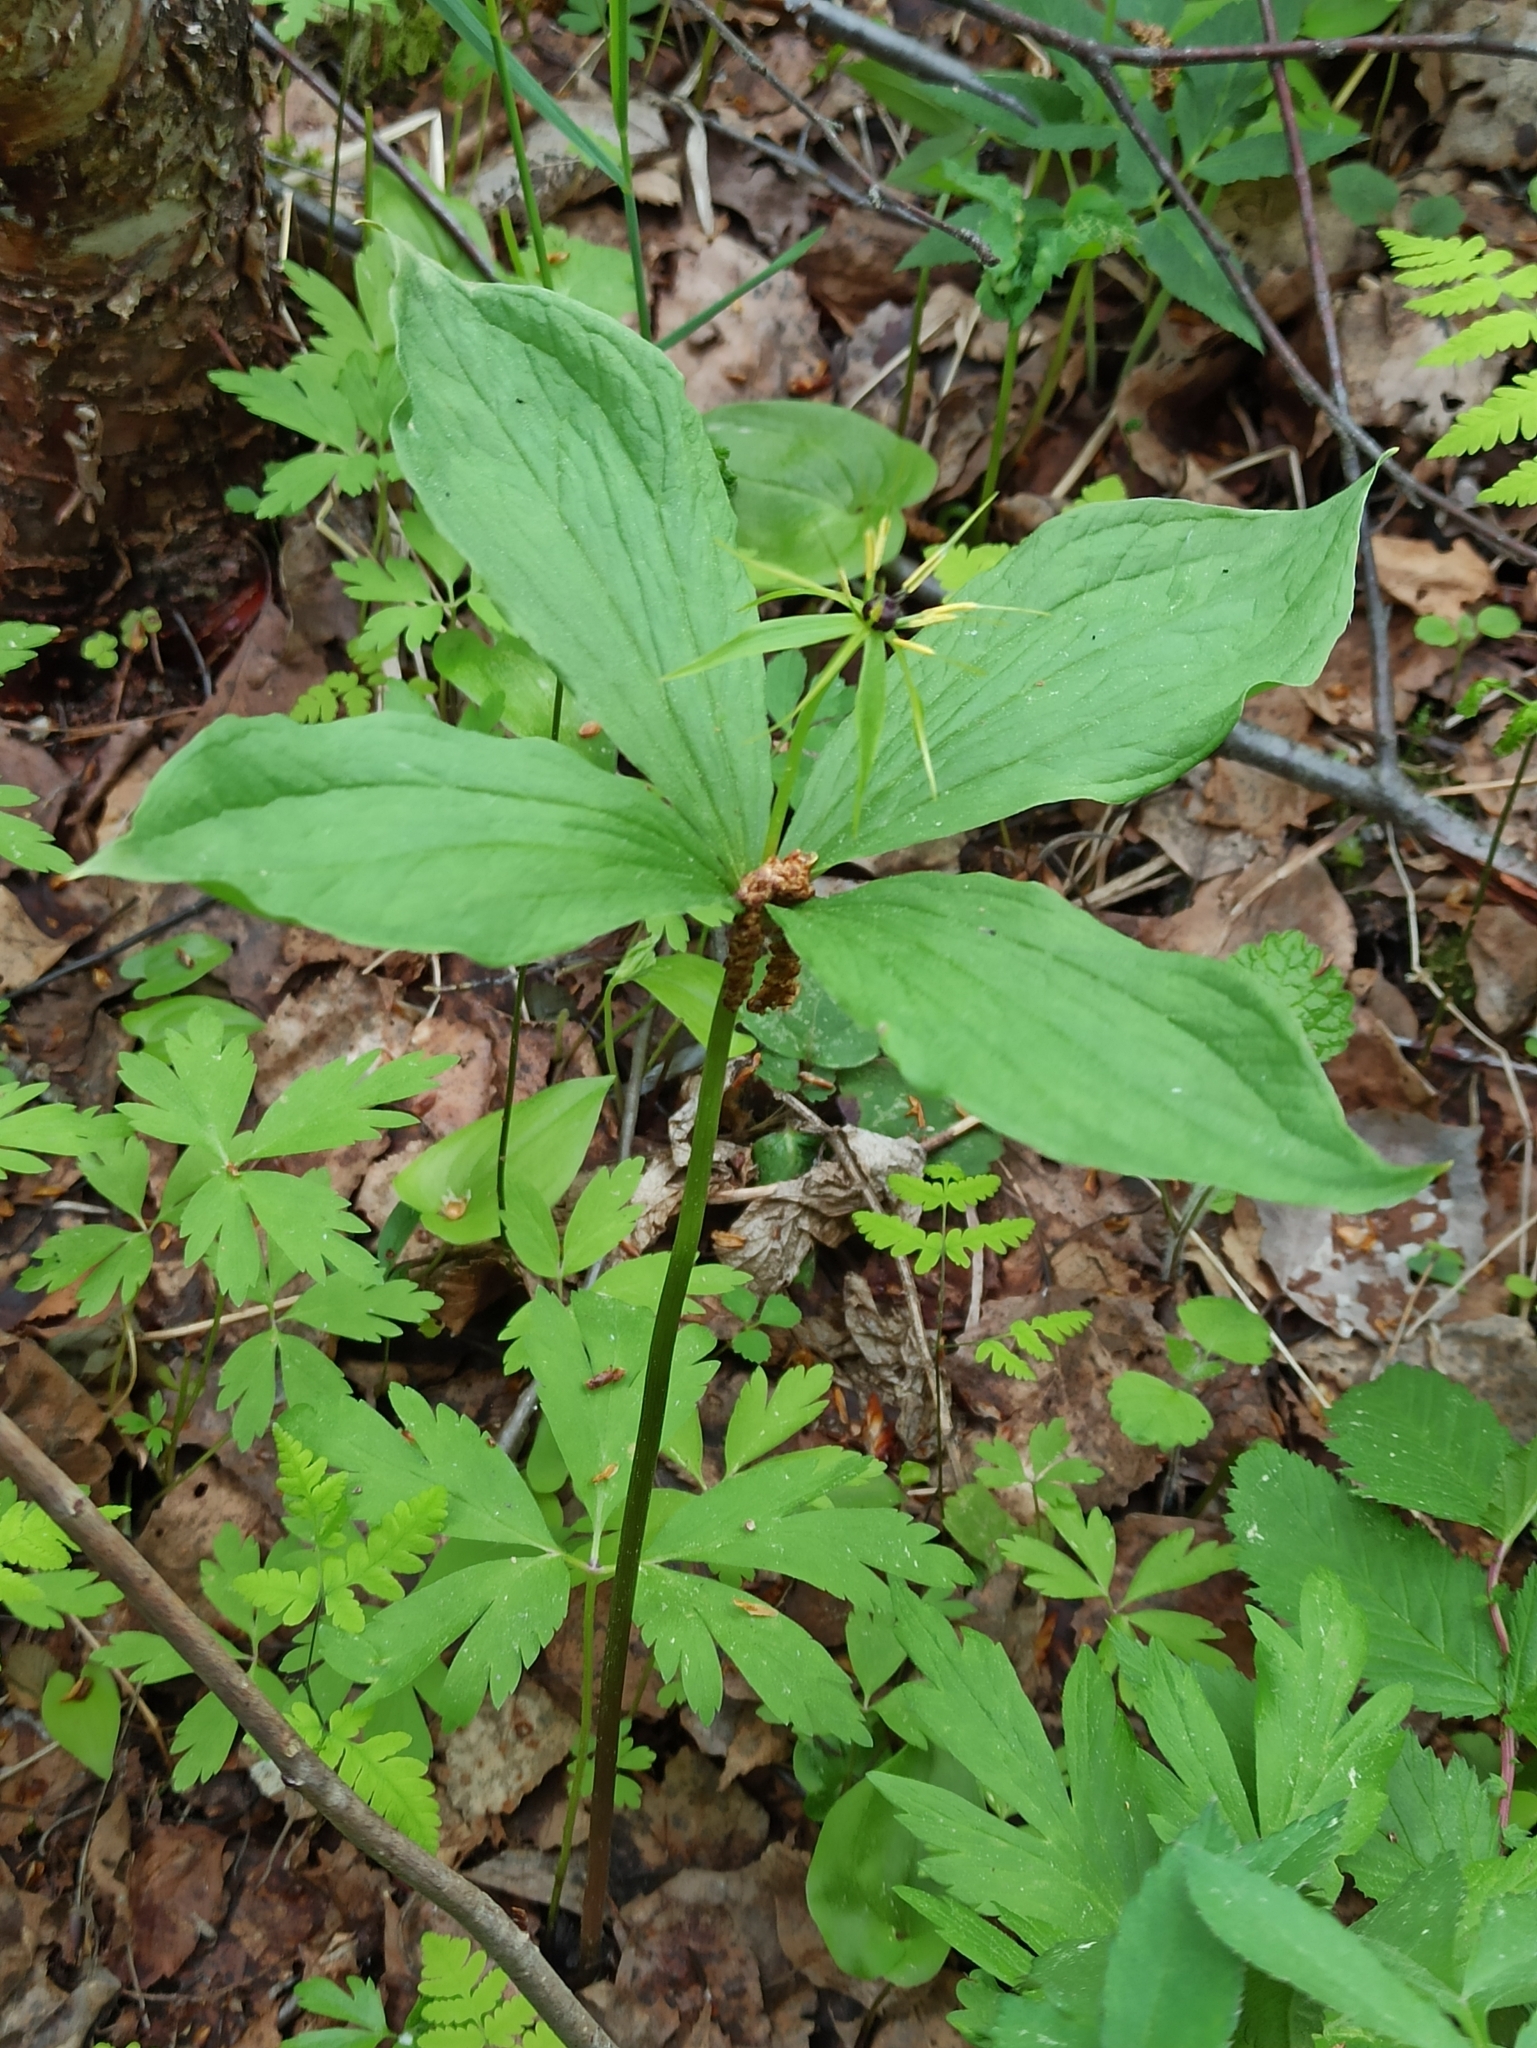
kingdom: Plantae
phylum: Tracheophyta
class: Liliopsida
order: Liliales
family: Melanthiaceae
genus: Paris
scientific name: Paris quadrifolia
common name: Herb-paris
